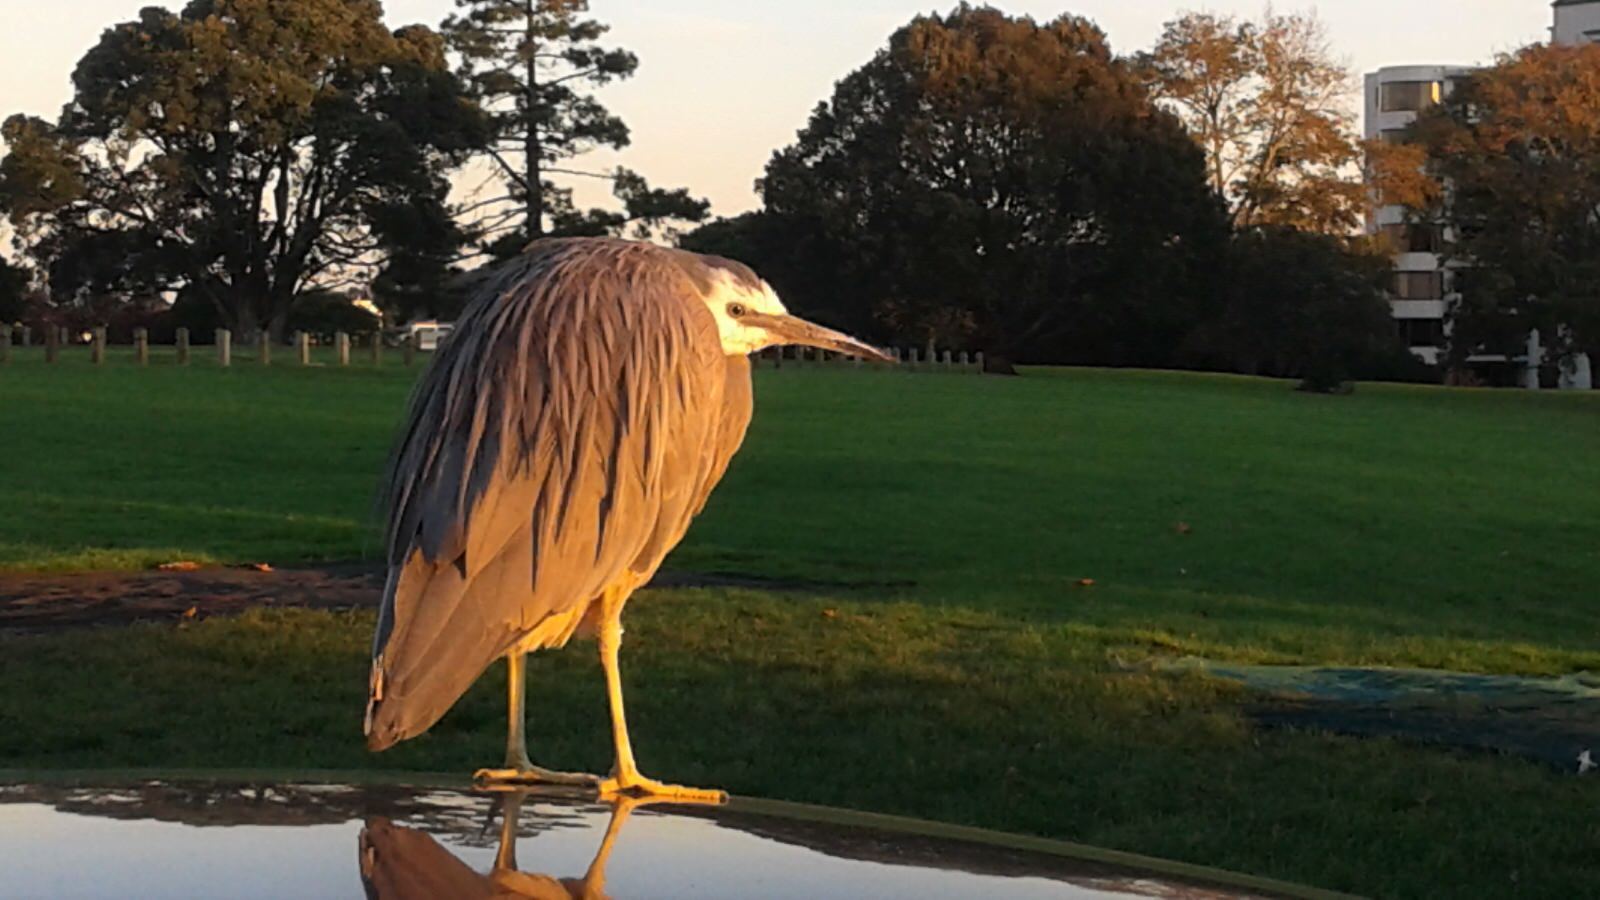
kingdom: Animalia
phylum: Chordata
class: Aves
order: Pelecaniformes
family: Ardeidae
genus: Egretta
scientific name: Egretta novaehollandiae
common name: White-faced heron
